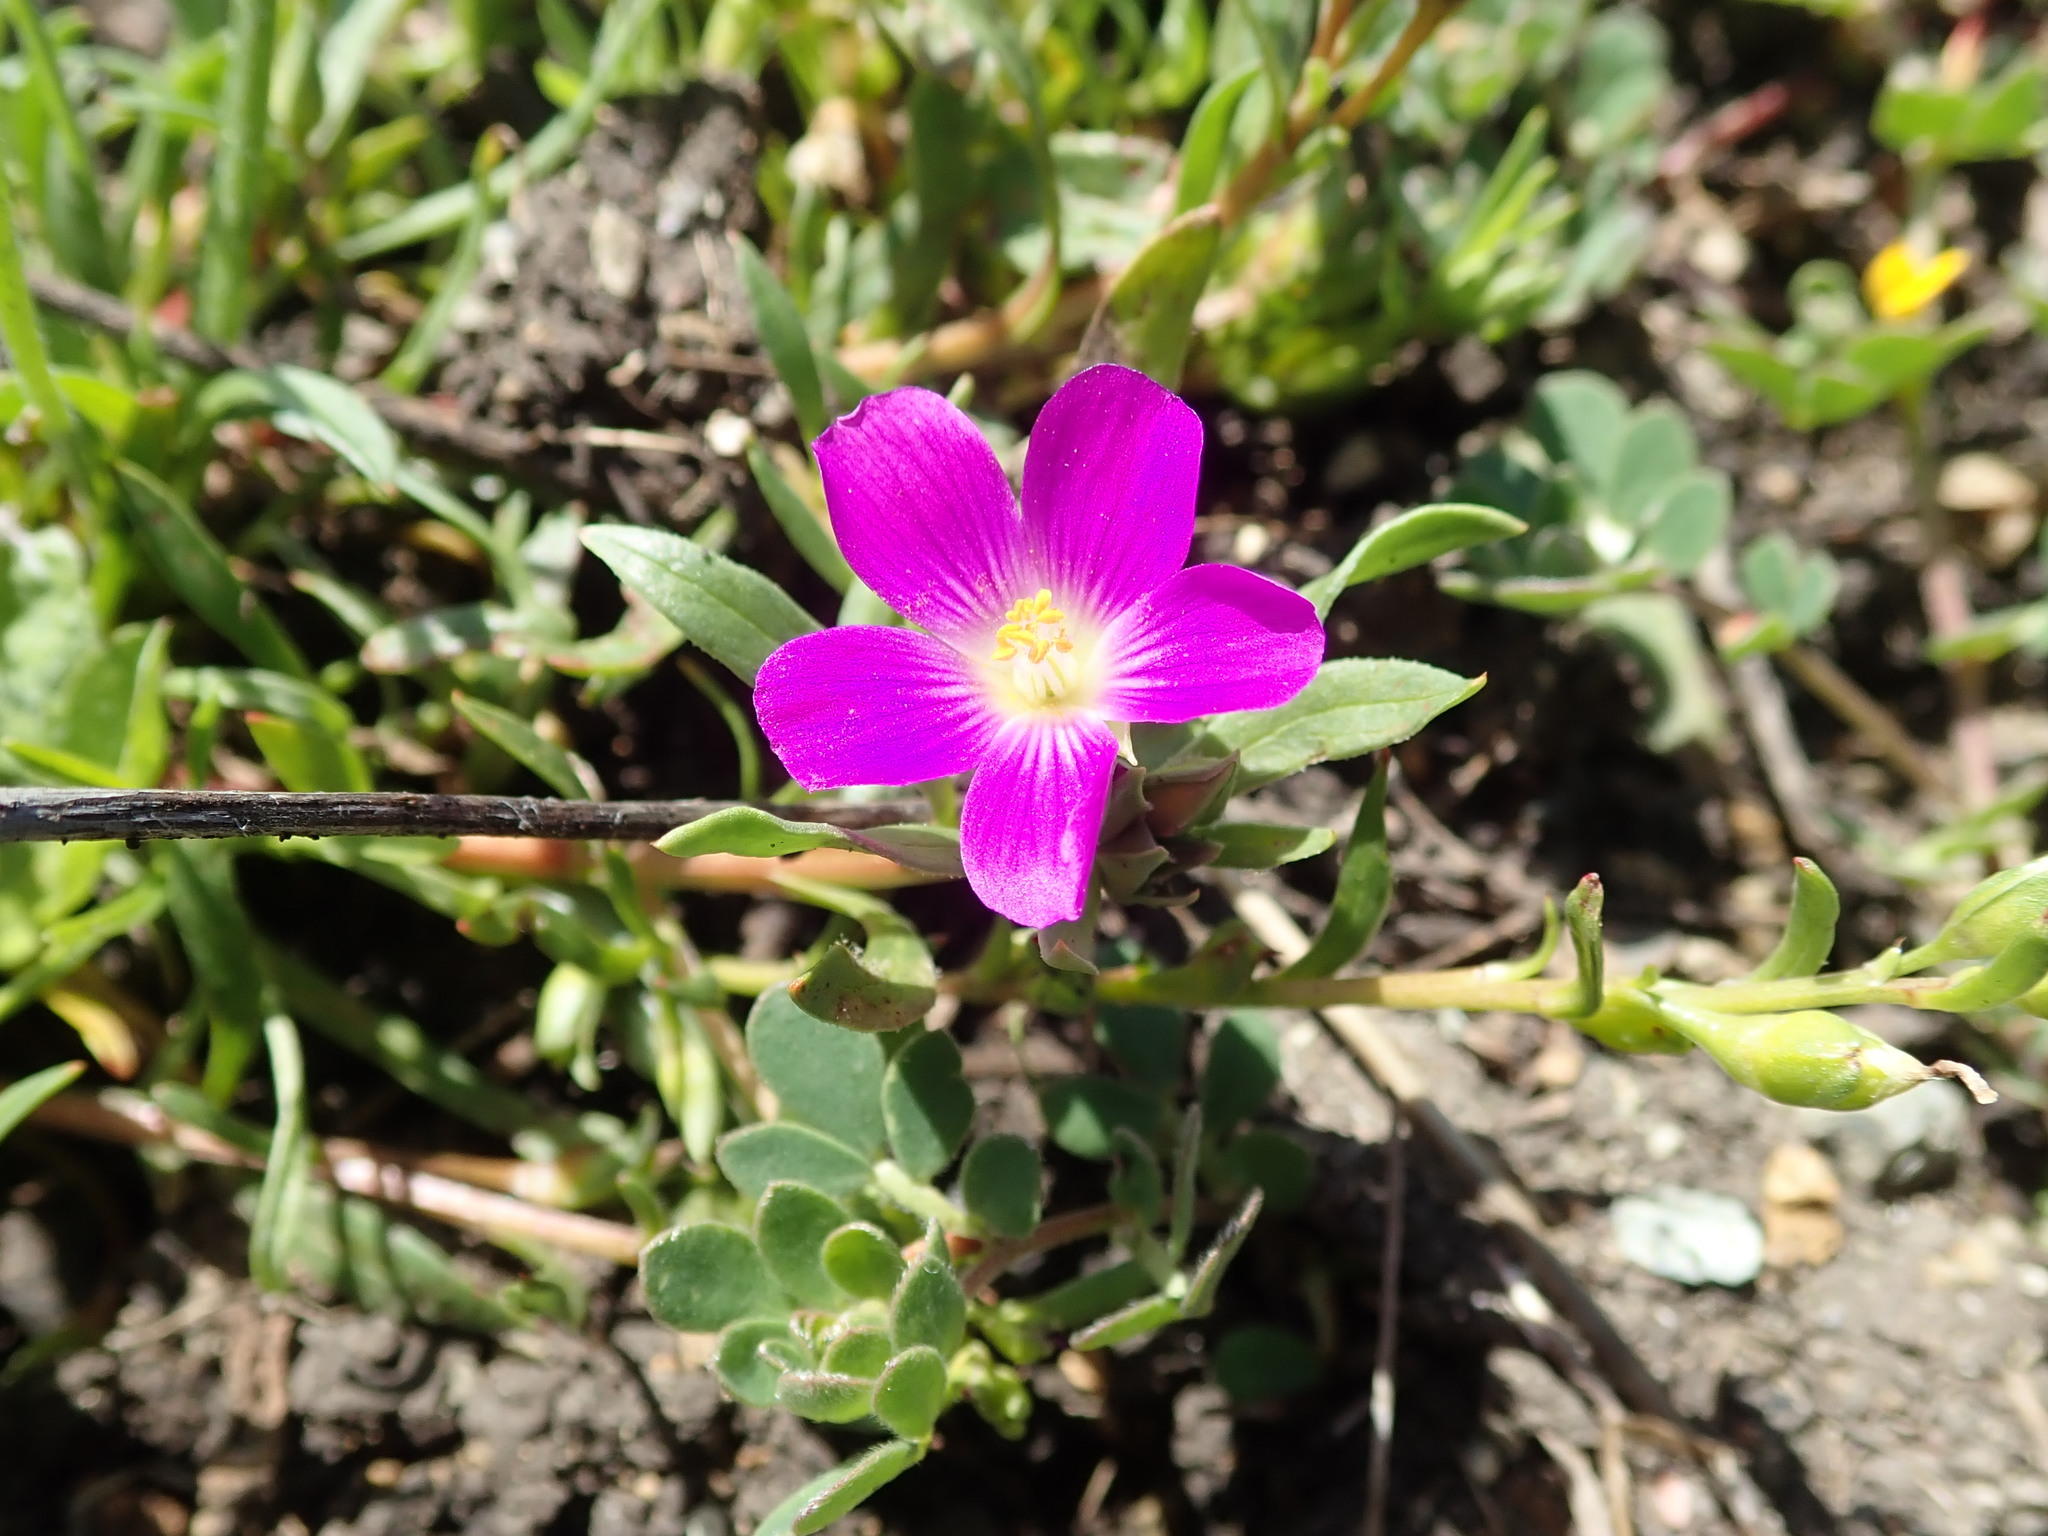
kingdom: Plantae
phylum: Tracheophyta
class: Magnoliopsida
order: Caryophyllales
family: Montiaceae
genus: Calandrinia
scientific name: Calandrinia menziesii
